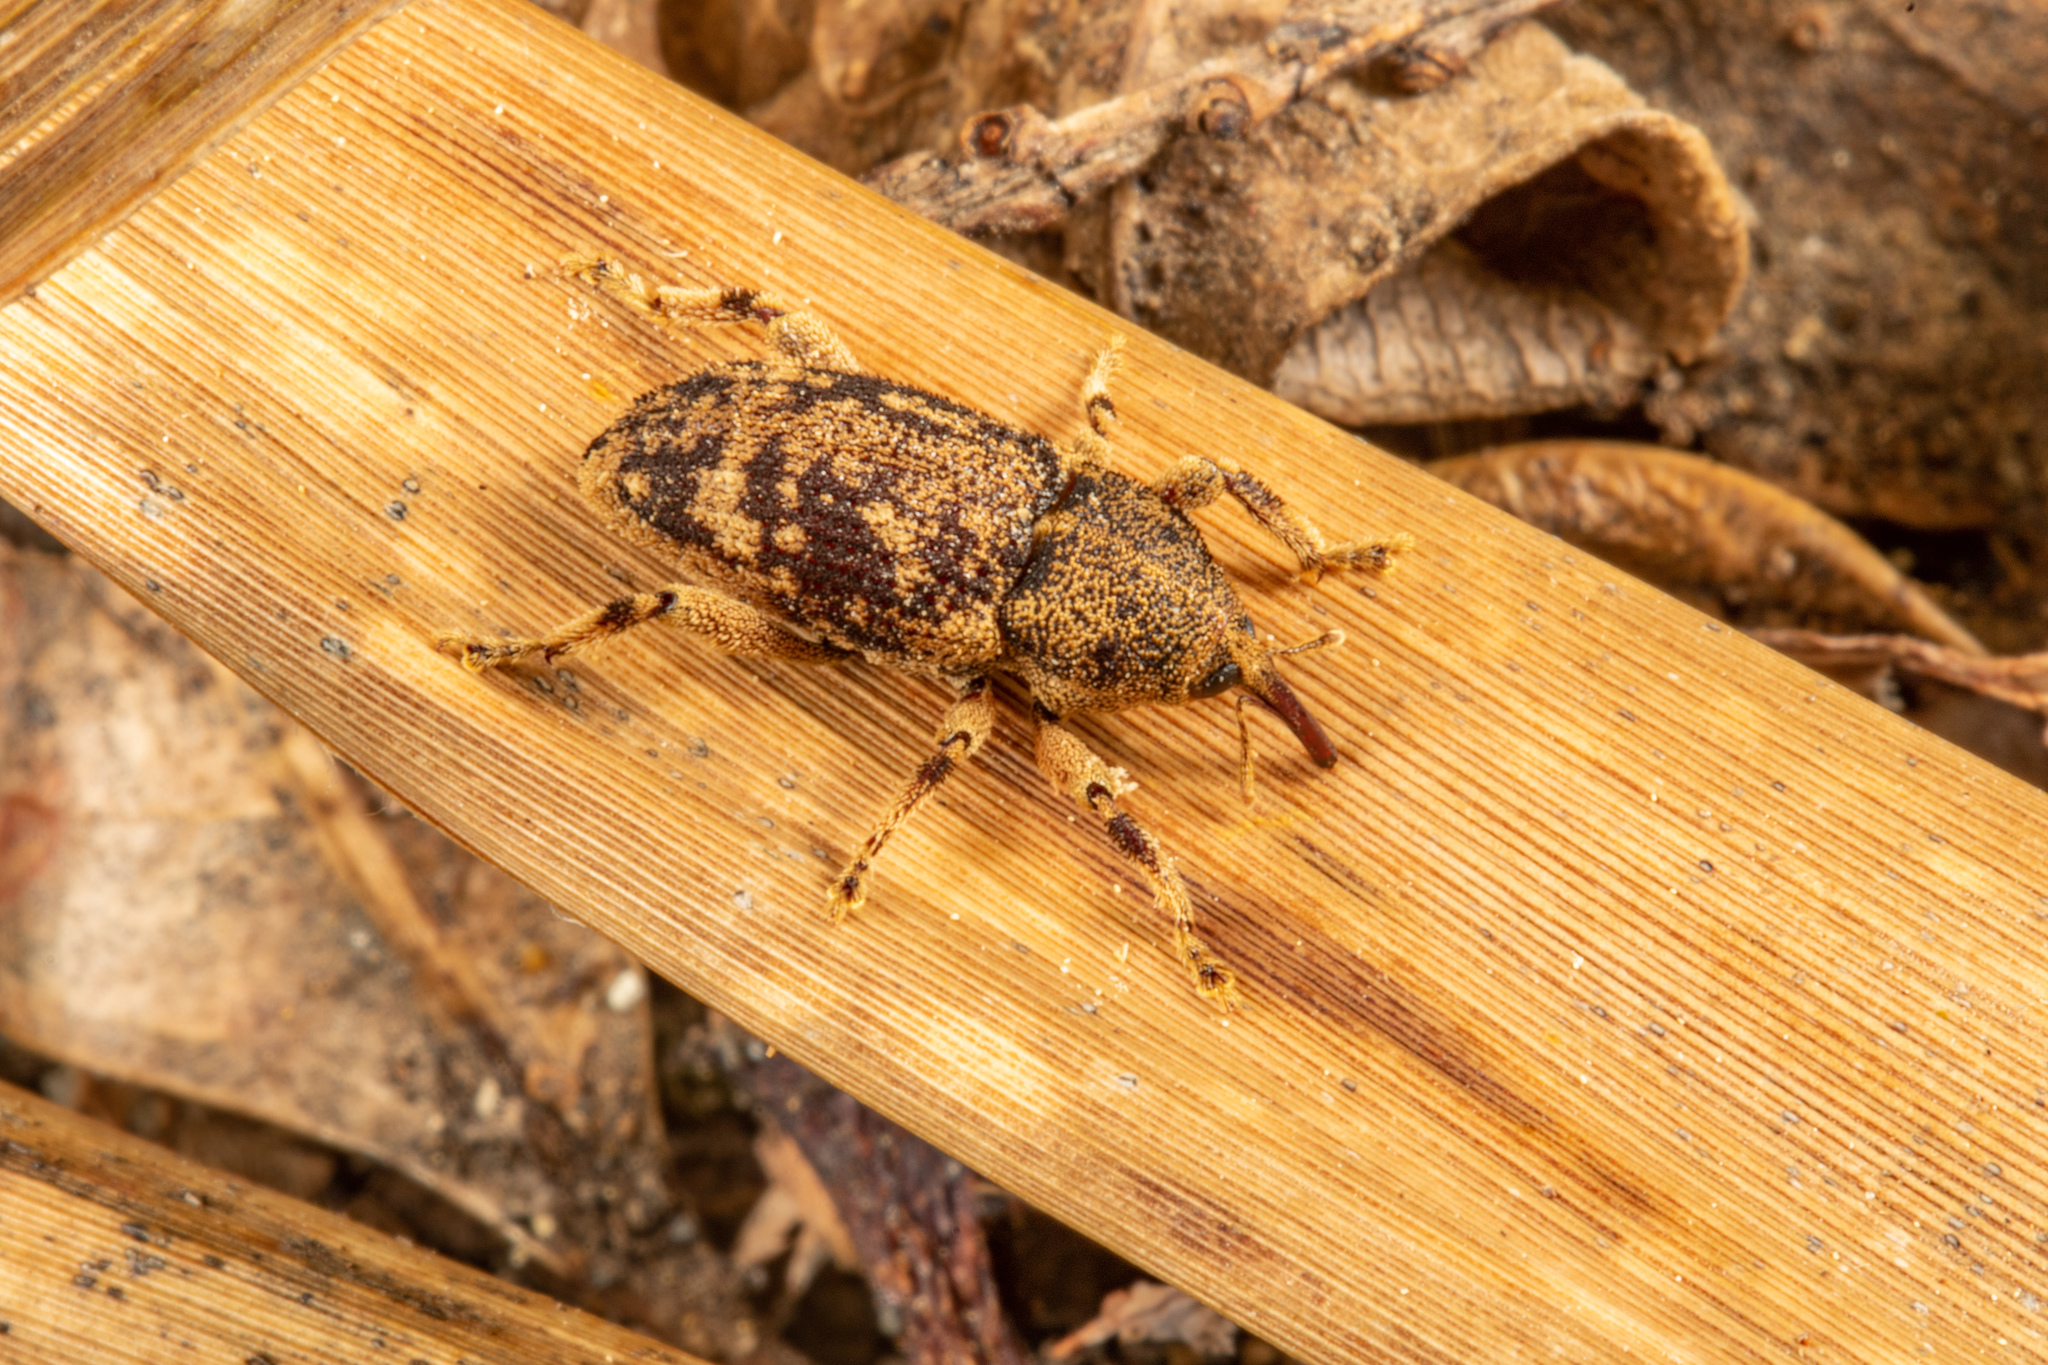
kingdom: Animalia
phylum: Arthropoda
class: Insecta
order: Coleoptera
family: Curculionidae
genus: Strongylopterus
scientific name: Strongylopterus hylopioides
